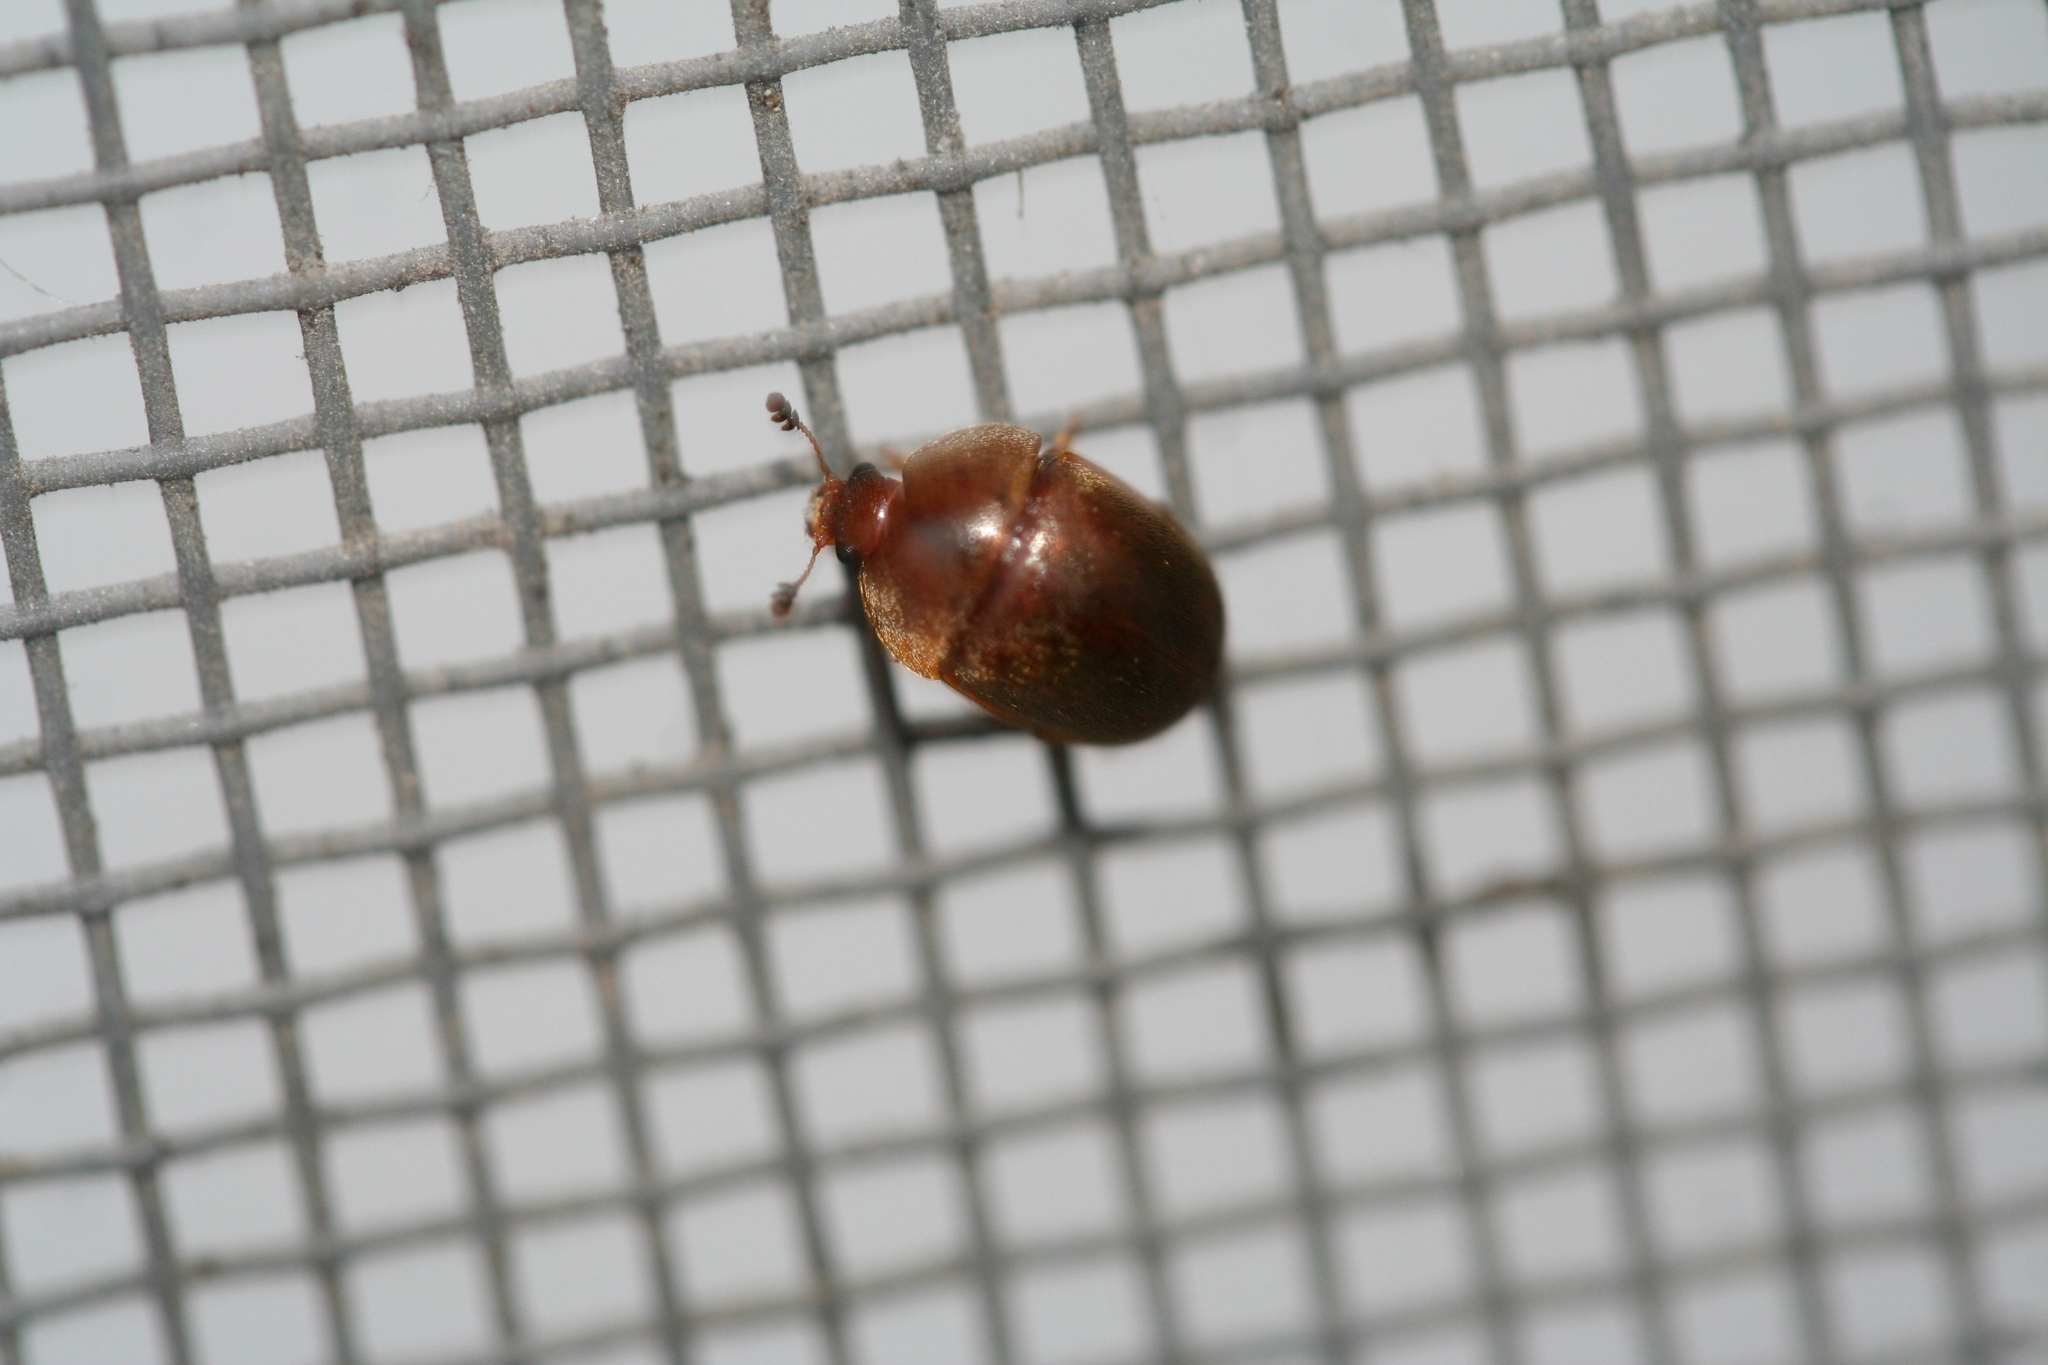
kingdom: Animalia
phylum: Arthropoda
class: Insecta
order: Coleoptera
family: Nitidulidae
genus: Cychramus
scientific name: Cychramus luteus
